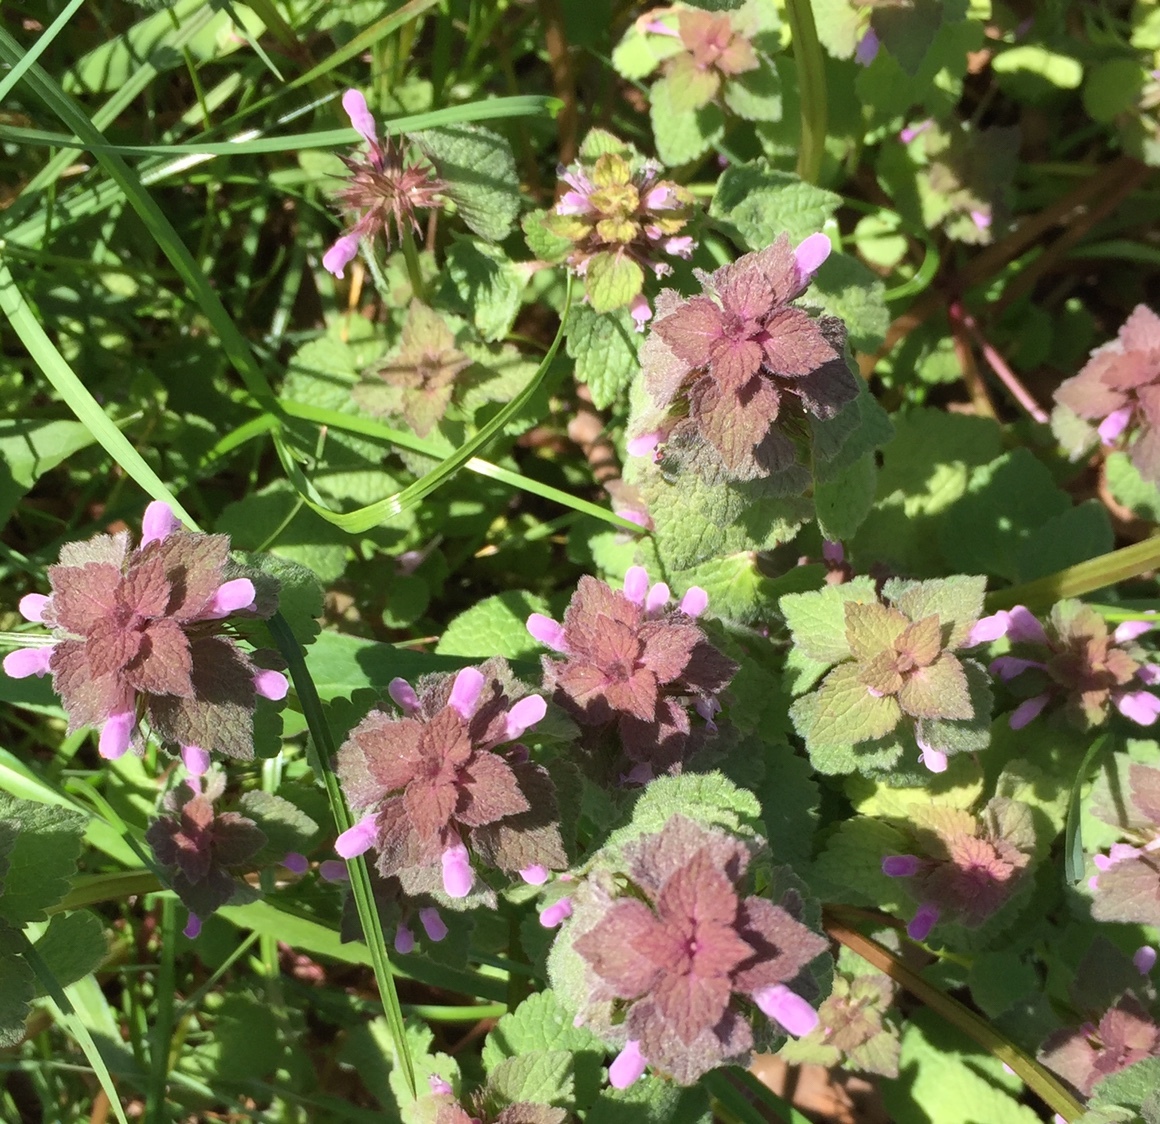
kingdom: Plantae
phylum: Tracheophyta
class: Magnoliopsida
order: Lamiales
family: Lamiaceae
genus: Lamium
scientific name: Lamium purpureum
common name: Red dead-nettle
